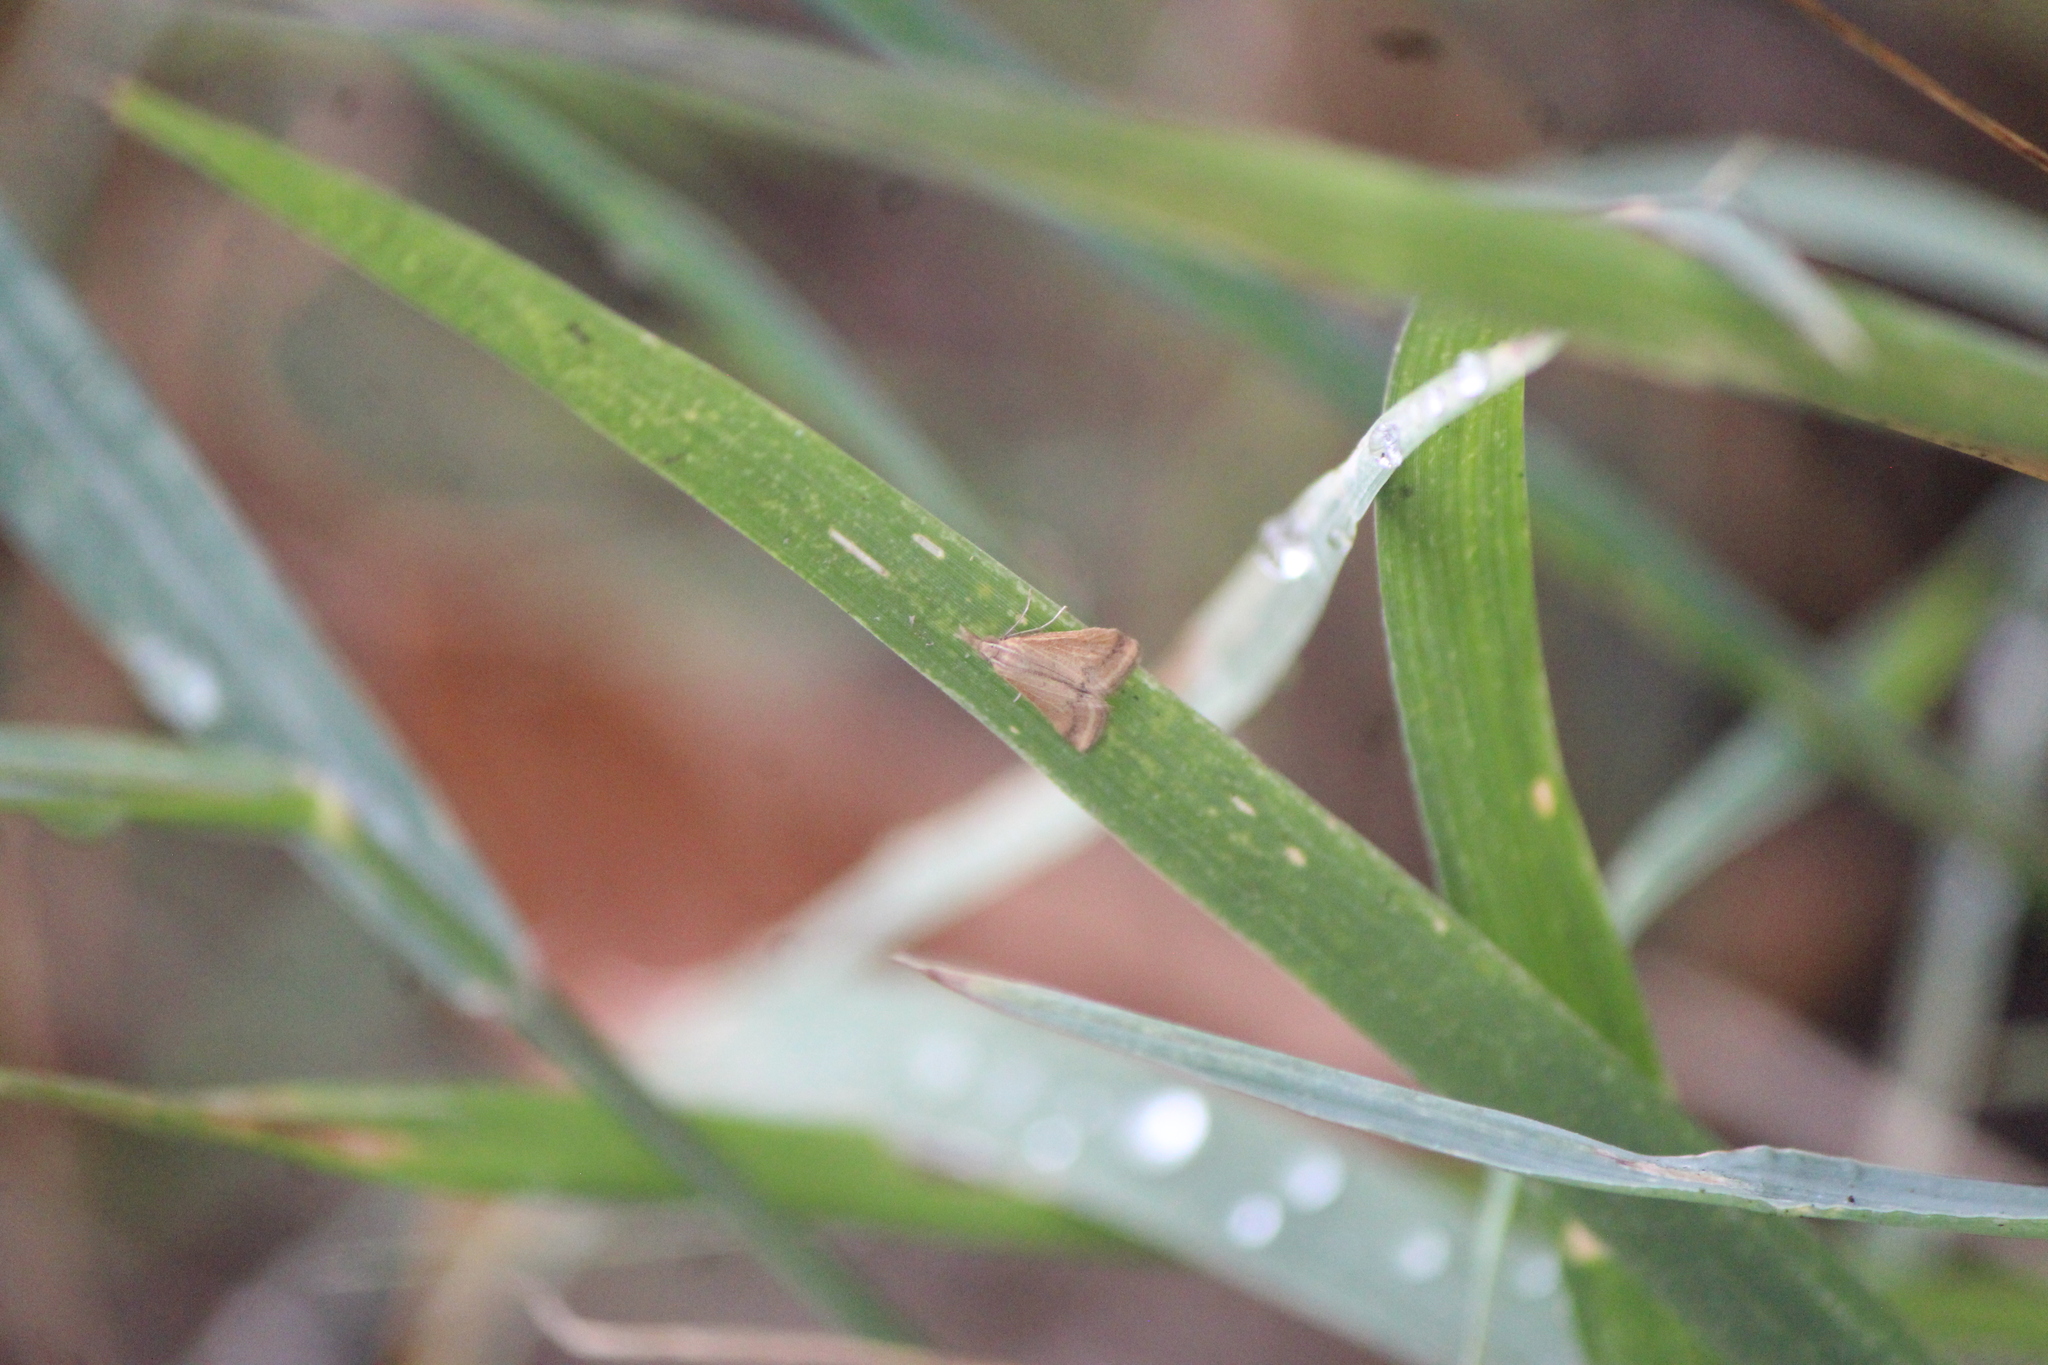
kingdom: Animalia
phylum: Arthropoda
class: Insecta
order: Lepidoptera
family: Crambidae
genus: Microtheoris
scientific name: Microtheoris ophionalis
